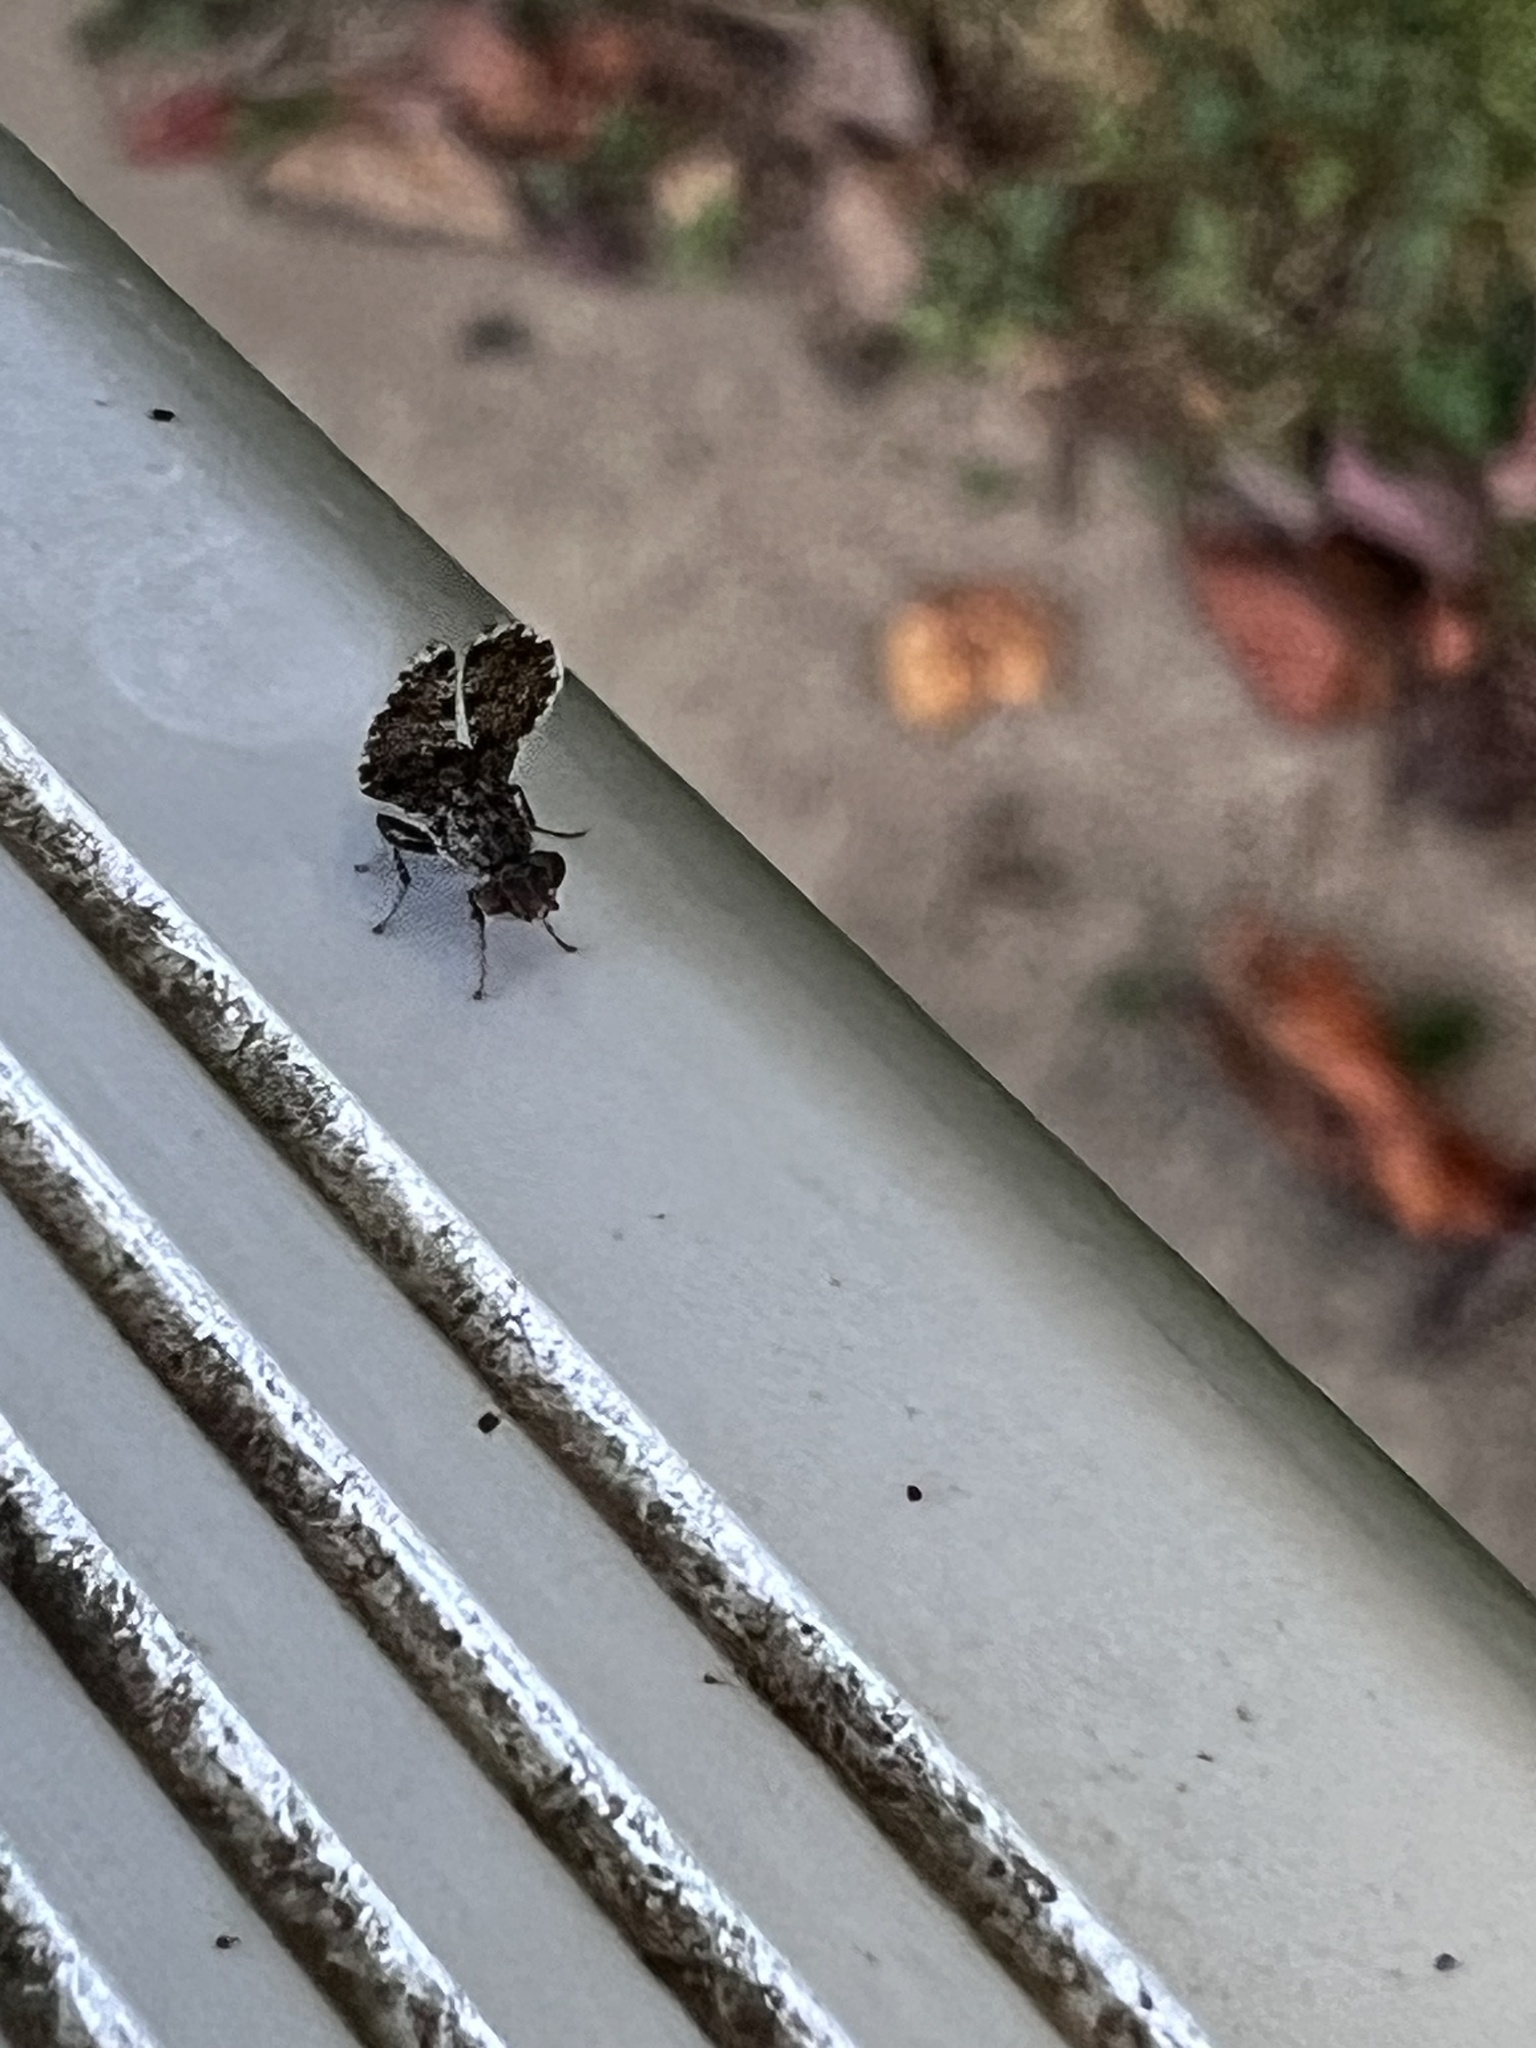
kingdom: Animalia
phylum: Arthropoda
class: Insecta
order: Diptera
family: Ulidiidae
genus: Callopistromyia
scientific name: Callopistromyia annulipes
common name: Peacock fly
